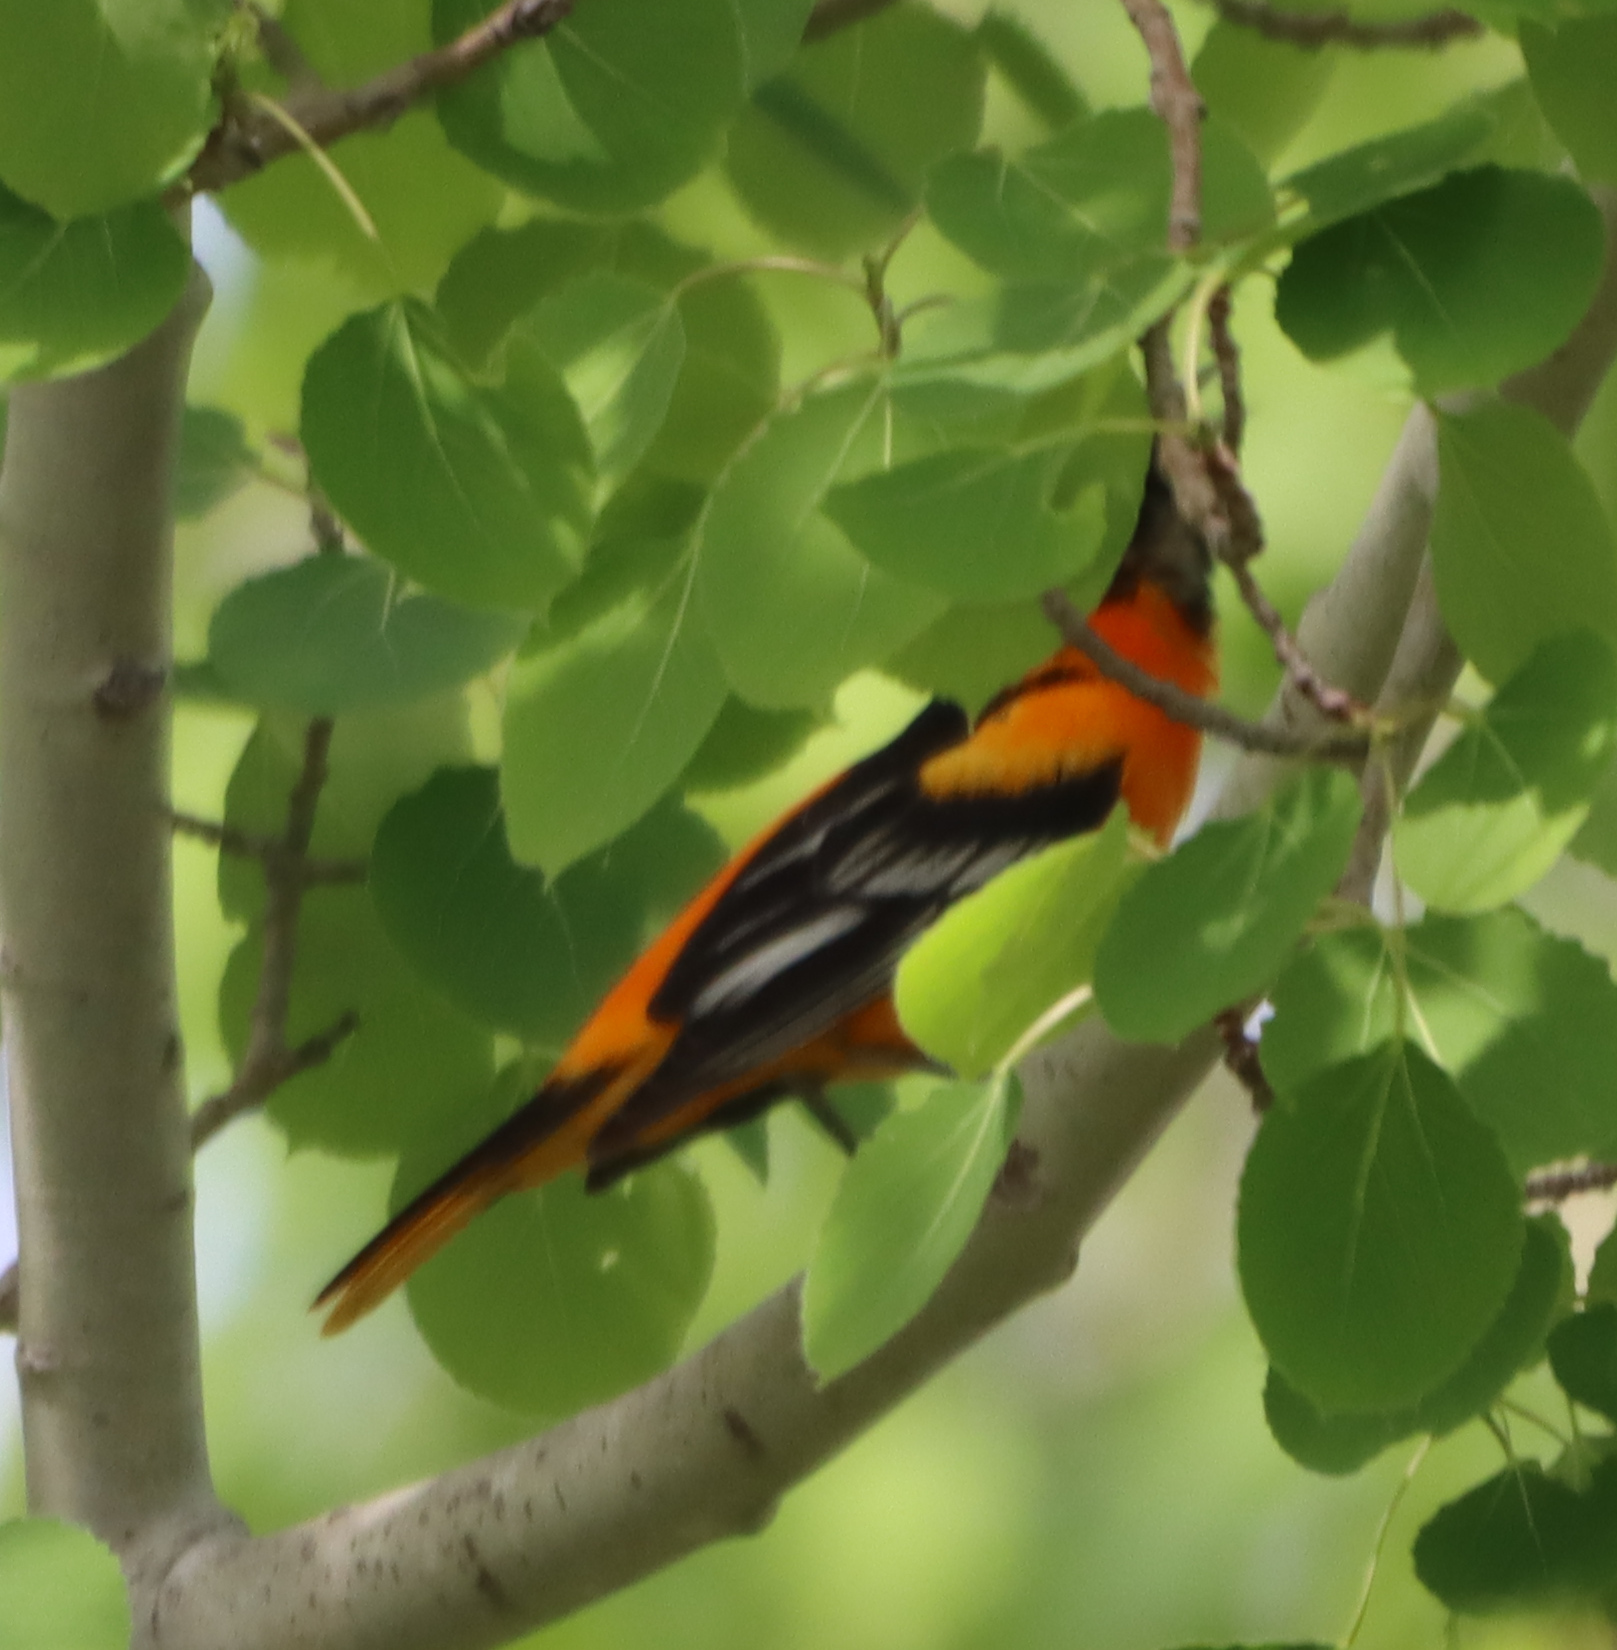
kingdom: Animalia
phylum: Chordata
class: Aves
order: Passeriformes
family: Icteridae
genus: Icterus
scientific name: Icterus galbula
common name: Baltimore oriole
